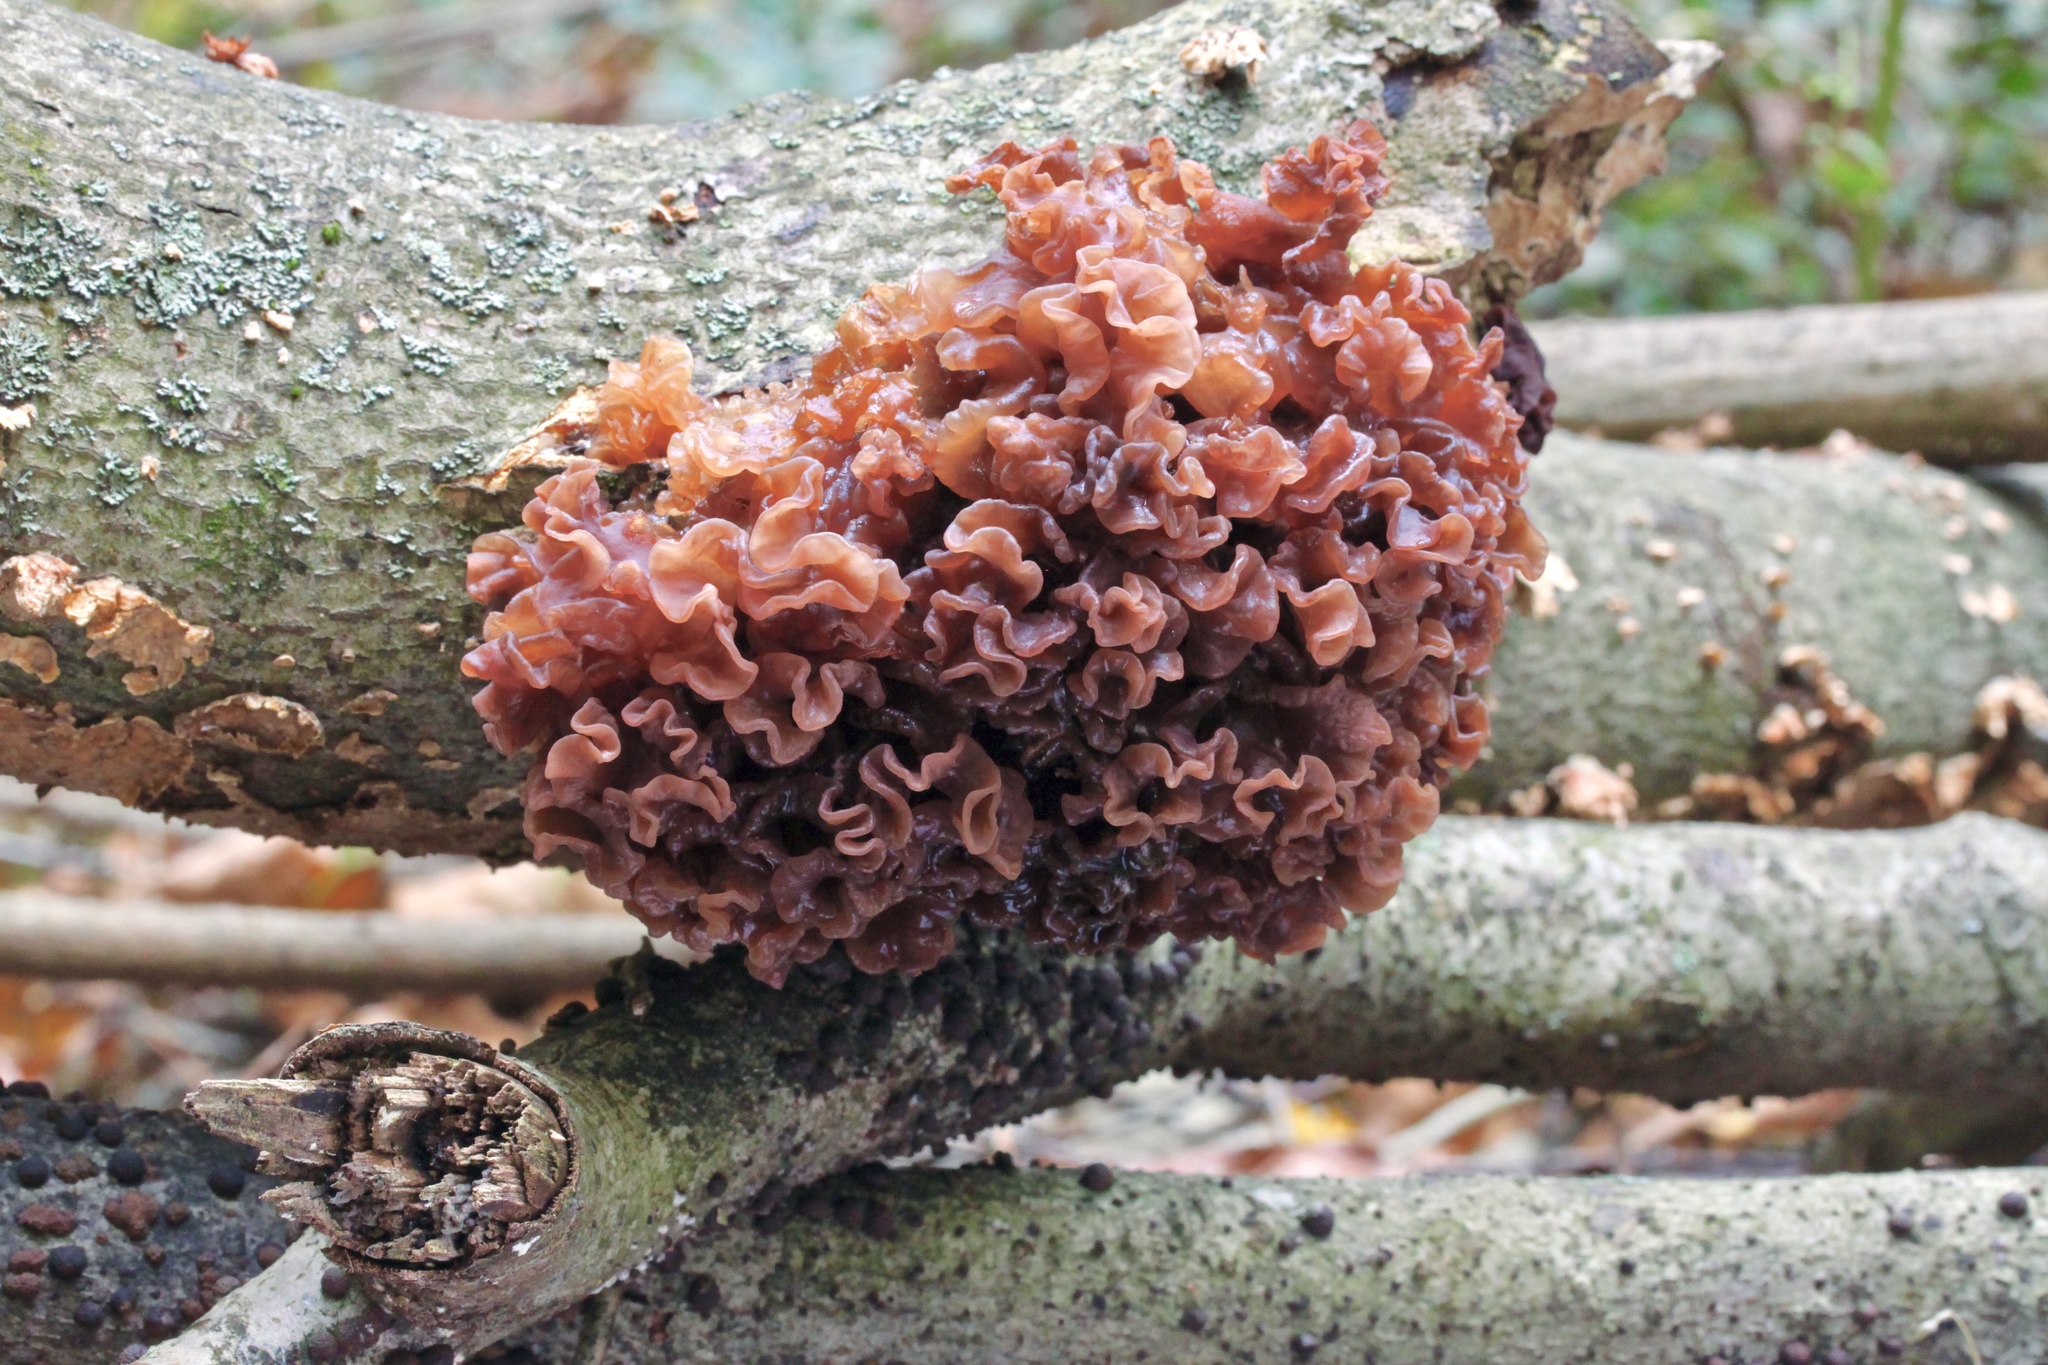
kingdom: Fungi
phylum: Basidiomycota
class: Tremellomycetes
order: Tremellales
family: Tremellaceae
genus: Phaeotremella
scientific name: Phaeotremella foliacea
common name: Leafy brain
